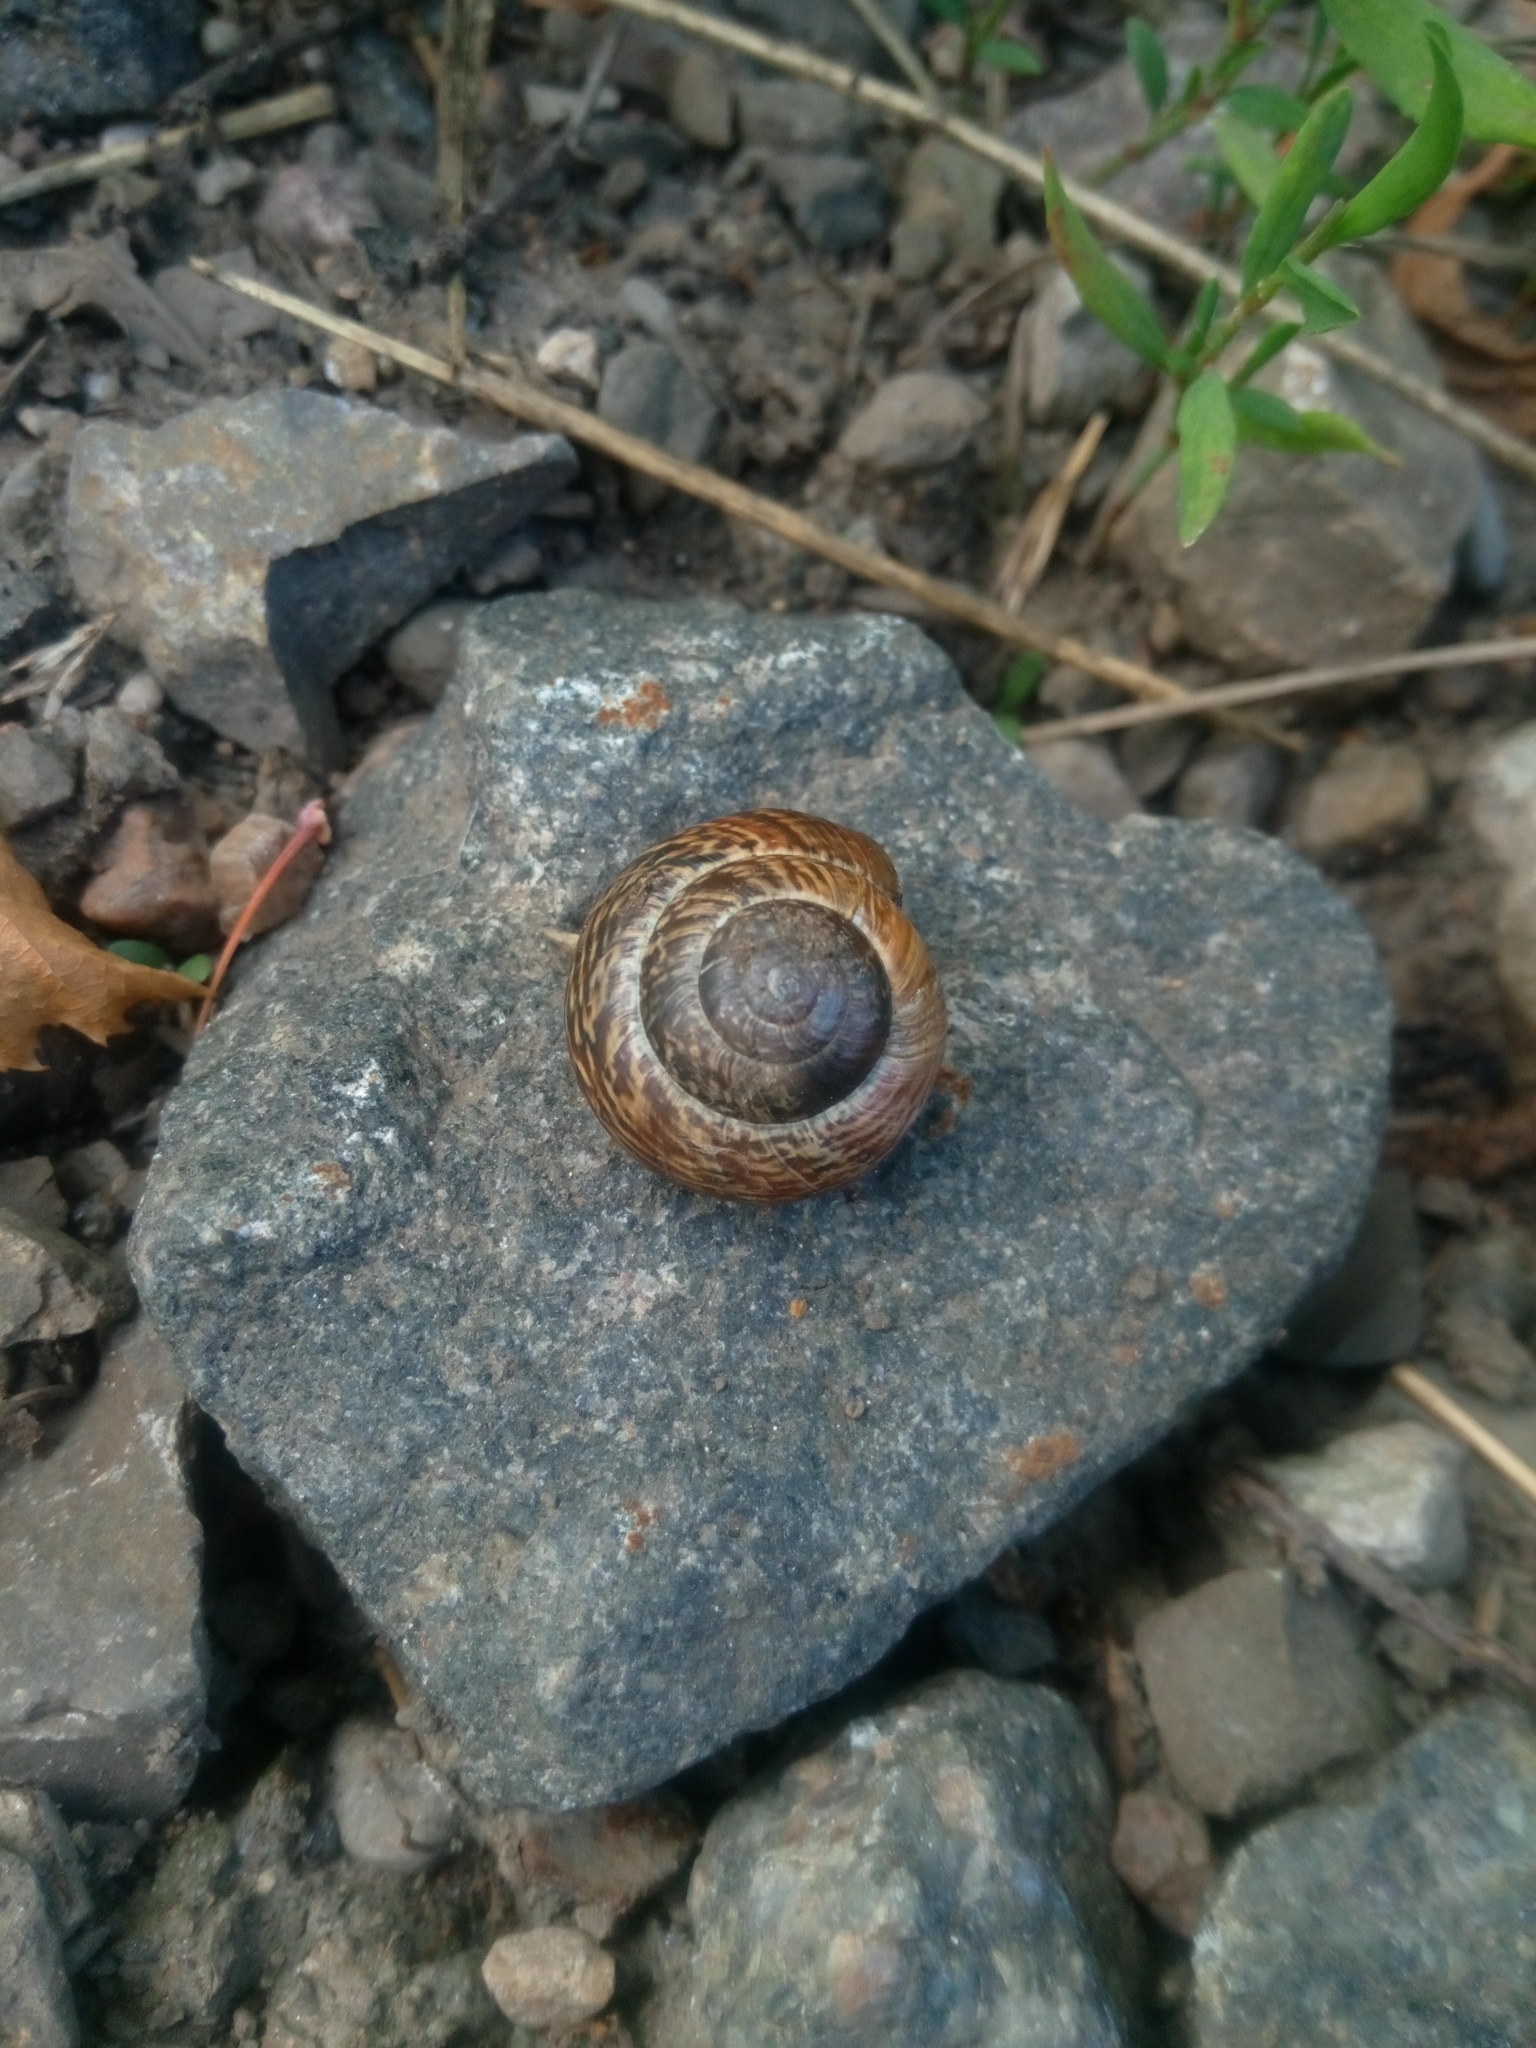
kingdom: Animalia
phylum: Mollusca
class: Gastropoda
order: Stylommatophora
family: Helicidae
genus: Arianta
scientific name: Arianta arbustorum
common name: Copse snail
